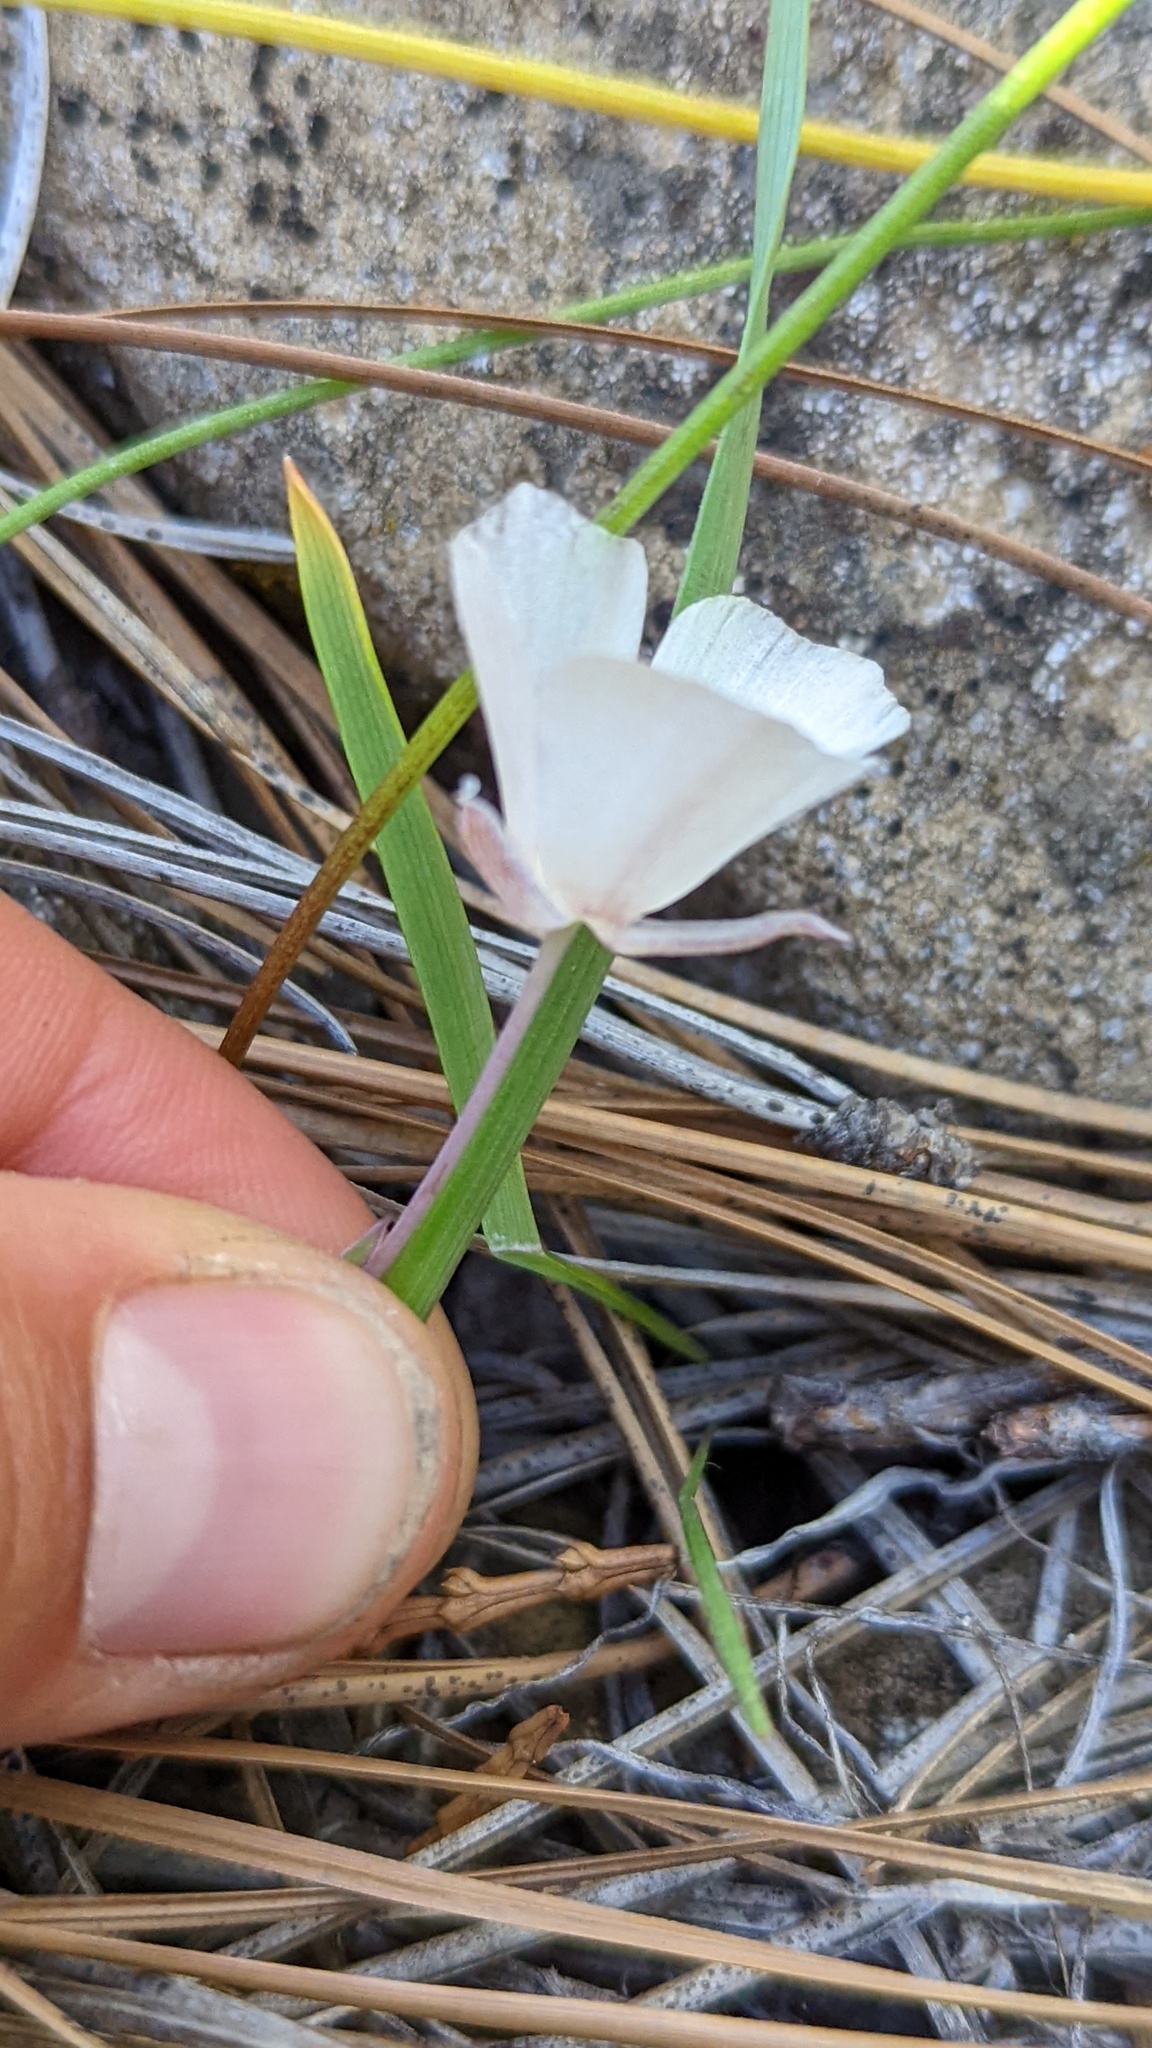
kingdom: Plantae
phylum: Tracheophyta
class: Liliopsida
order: Liliales
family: Liliaceae
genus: Calochortus
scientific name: Calochortus minimus
